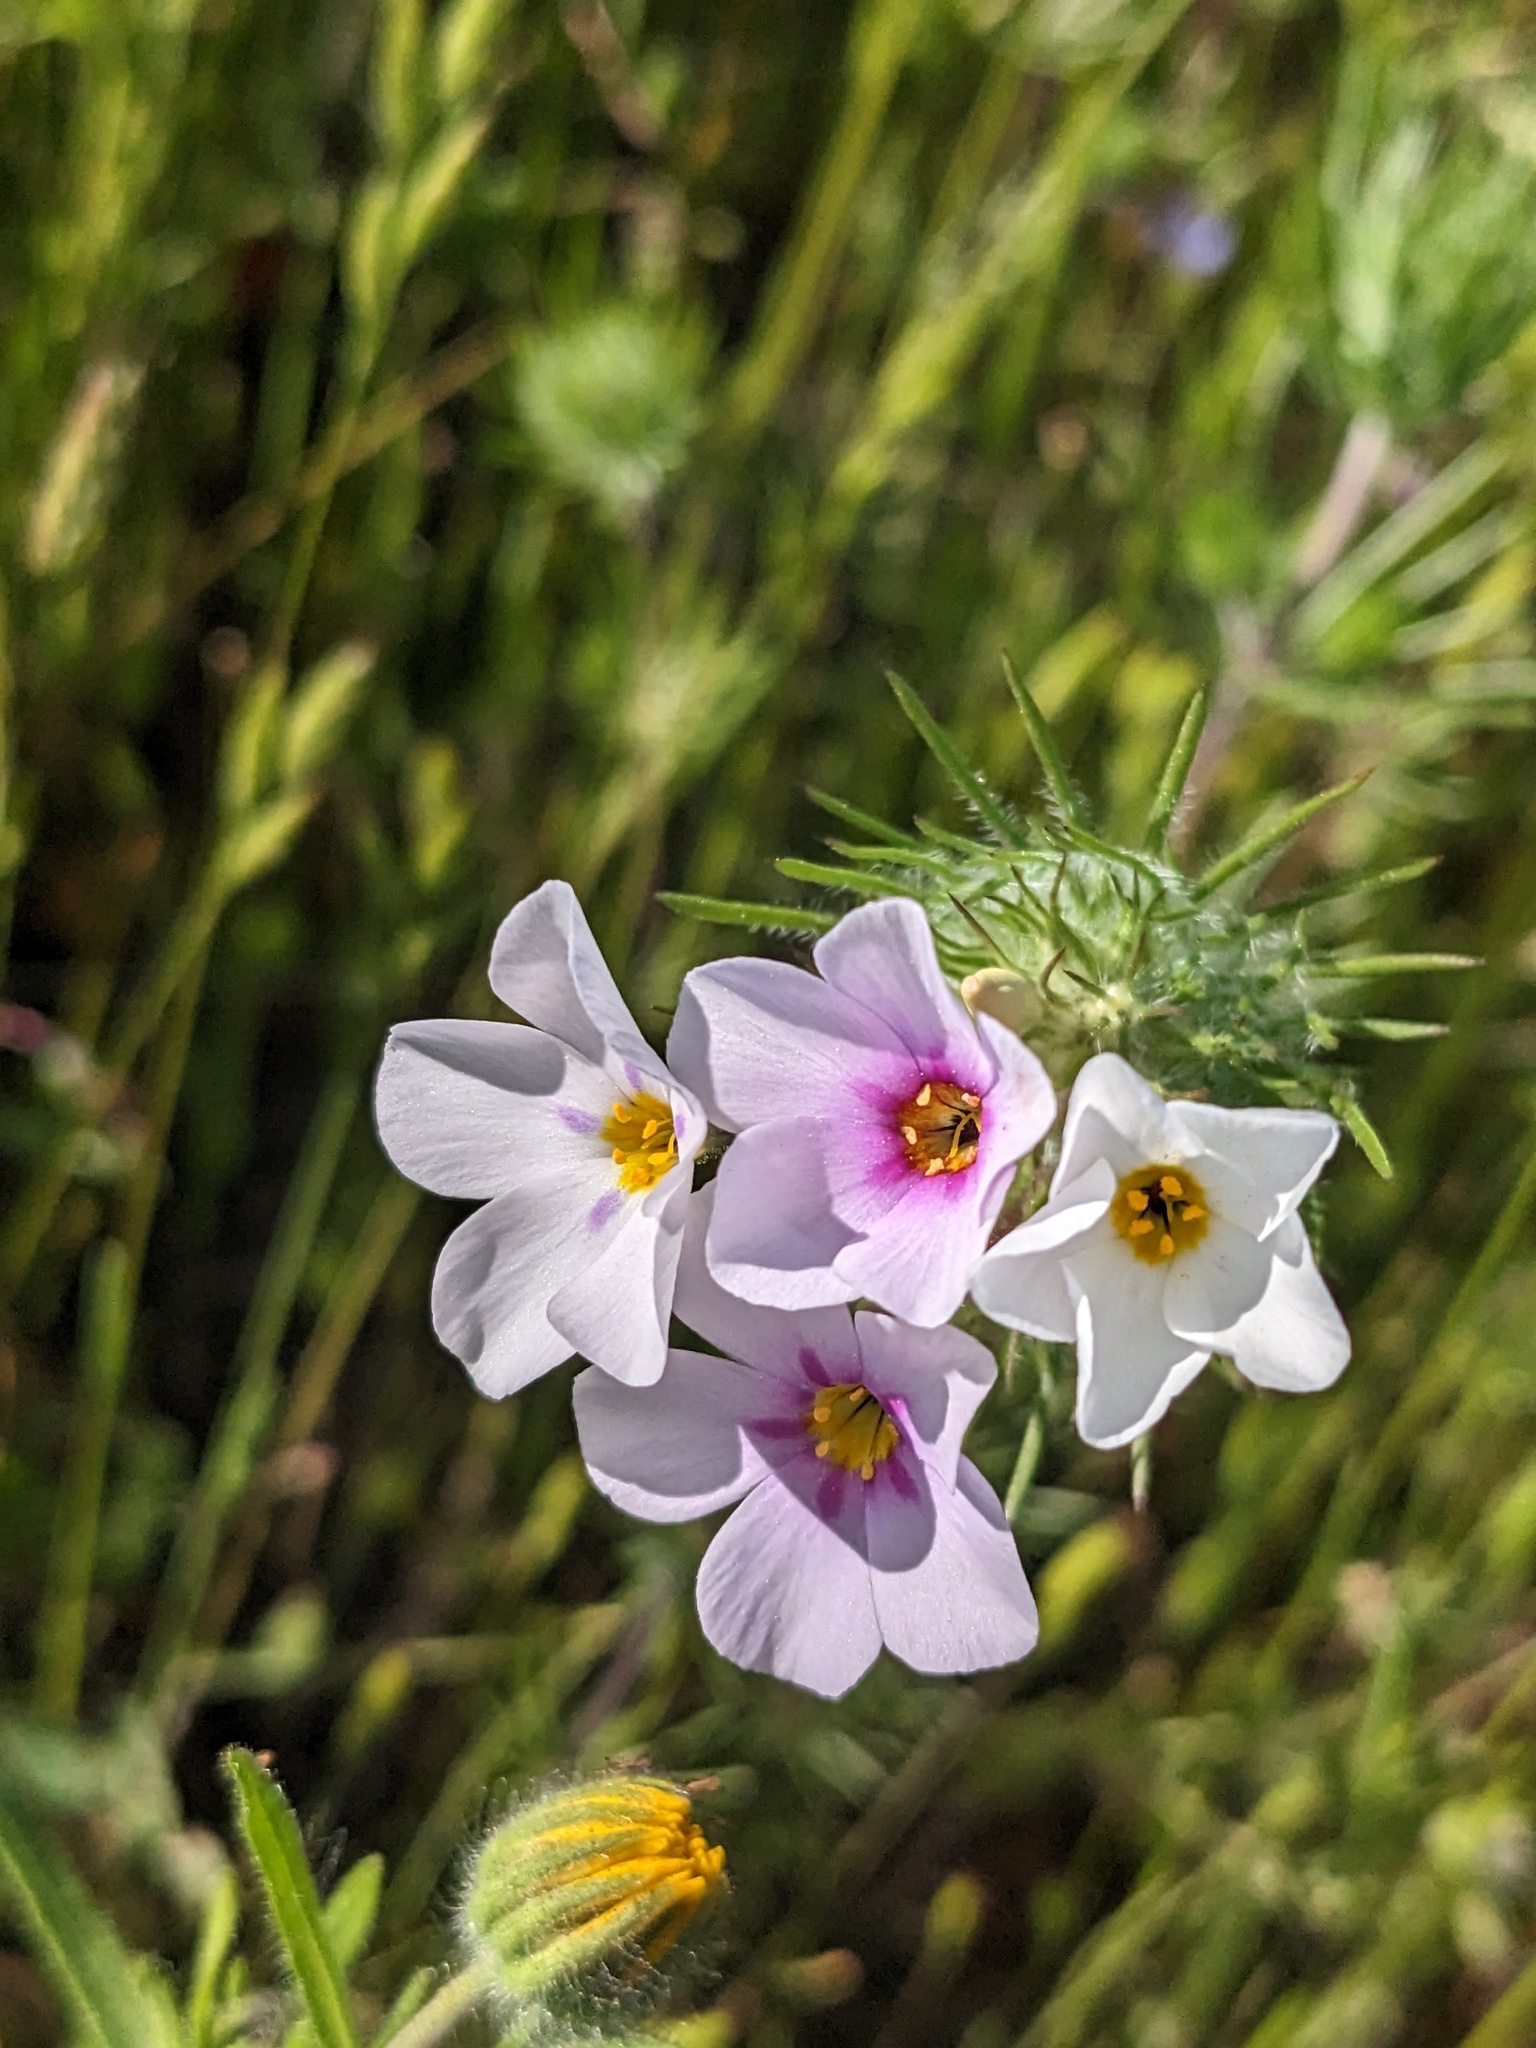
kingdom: Plantae
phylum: Tracheophyta
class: Magnoliopsida
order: Ericales
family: Polemoniaceae
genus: Leptosiphon
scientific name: Leptosiphon montanus
